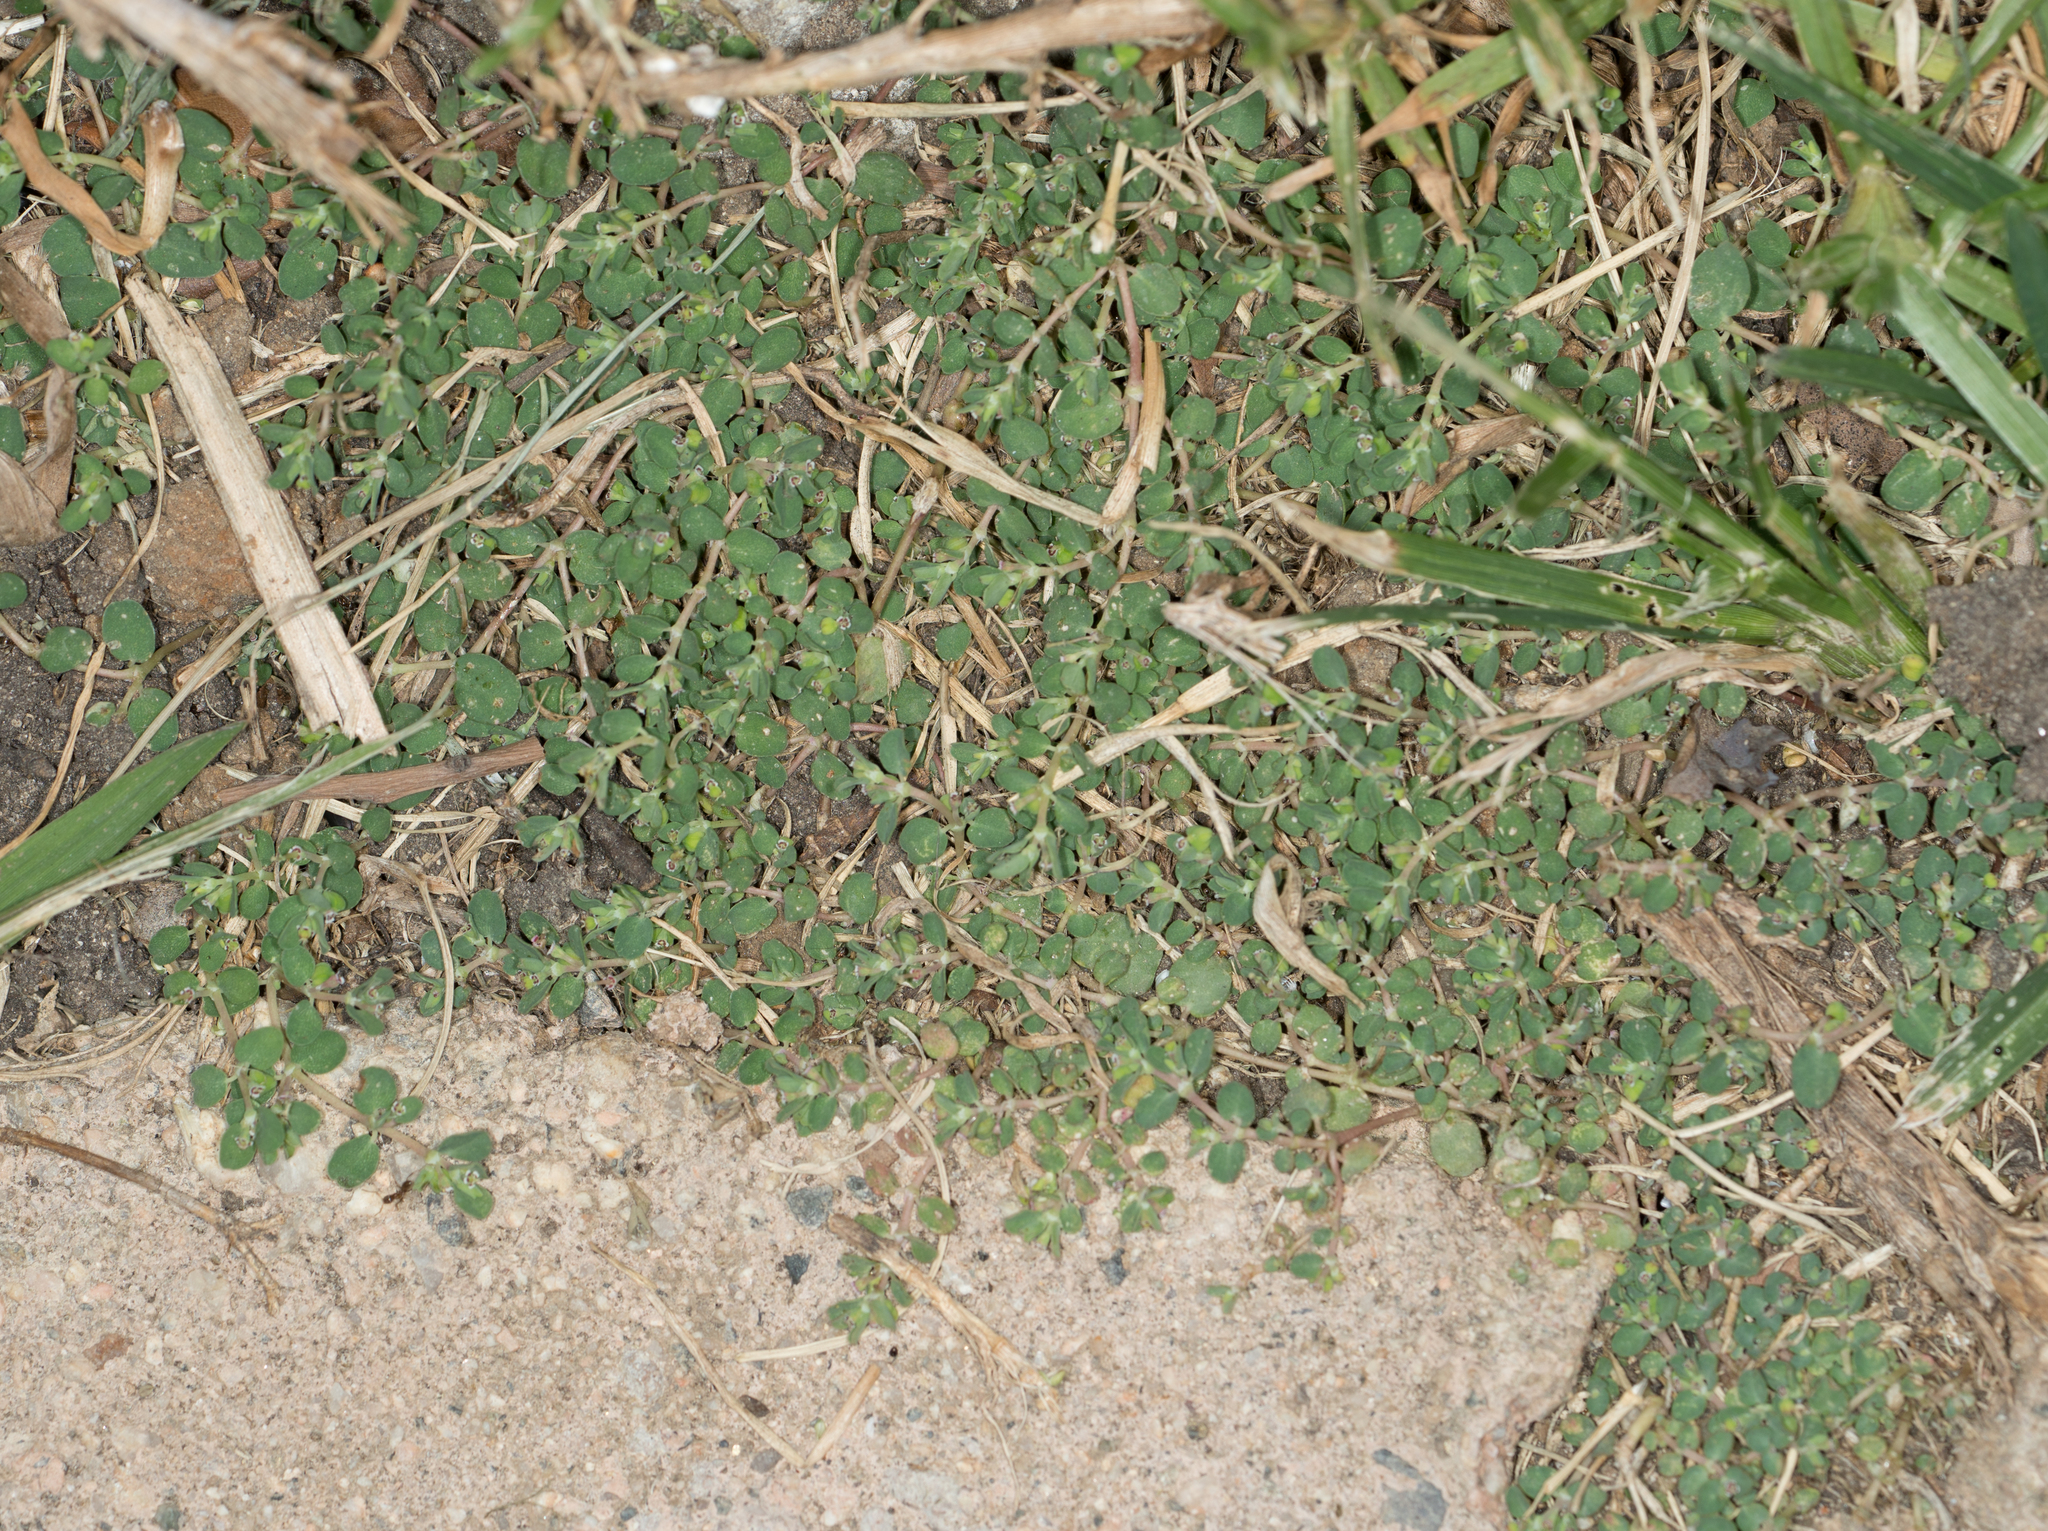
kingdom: Plantae
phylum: Tracheophyta
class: Magnoliopsida
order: Malpighiales
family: Euphorbiaceae
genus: Euphorbia
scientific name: Euphorbia serpens
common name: Matted sandmat
